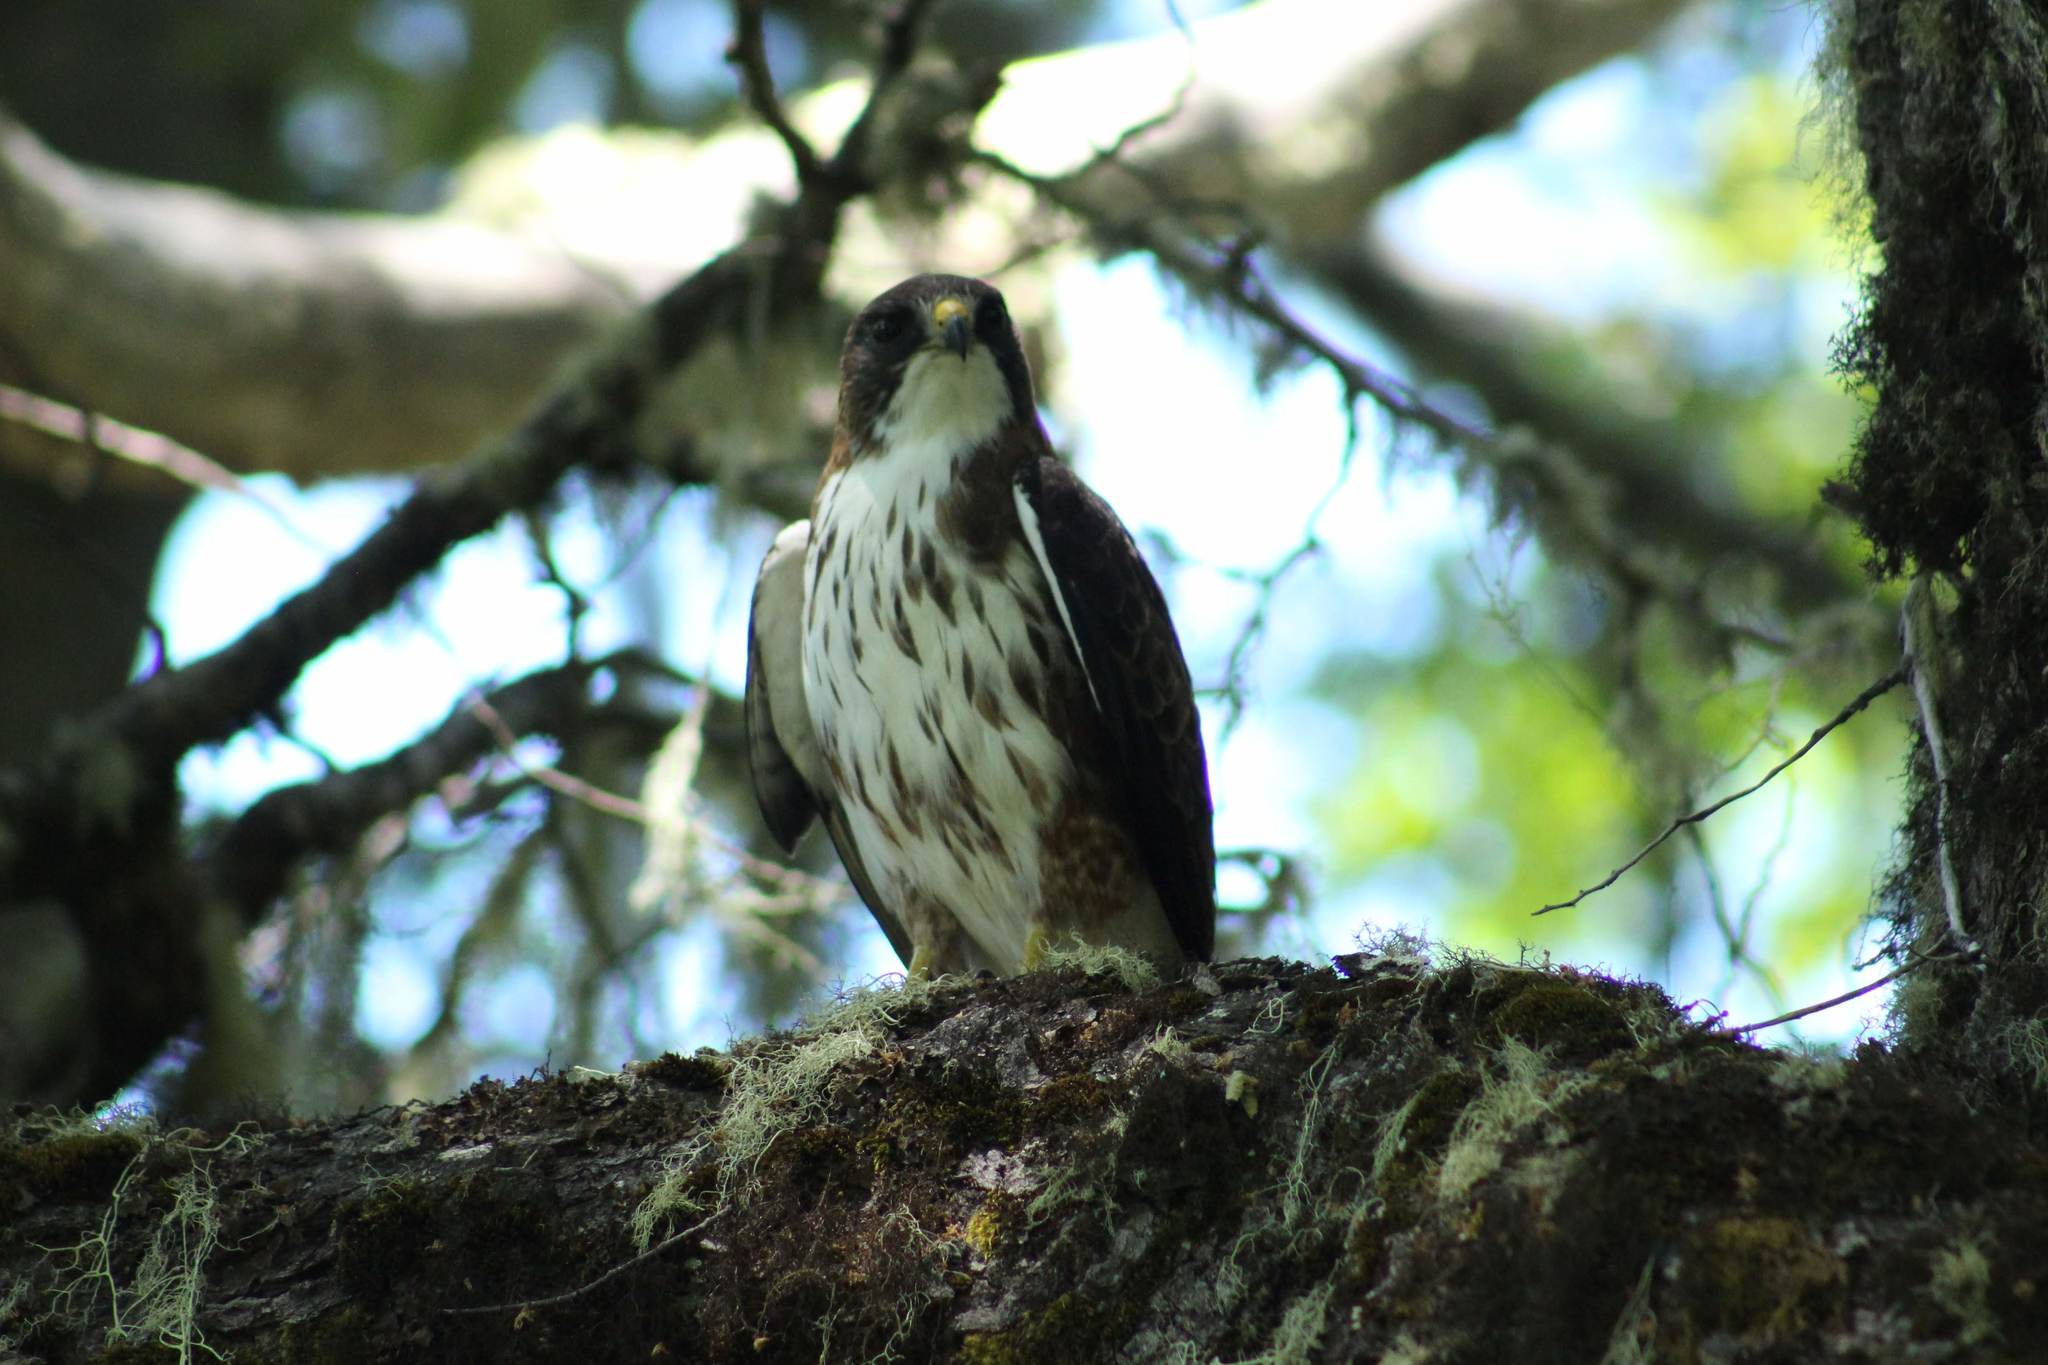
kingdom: Animalia
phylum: Chordata
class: Aves
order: Accipitriformes
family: Accipitridae
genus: Buteo
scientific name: Buteo albigula
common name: White-throated hawk
